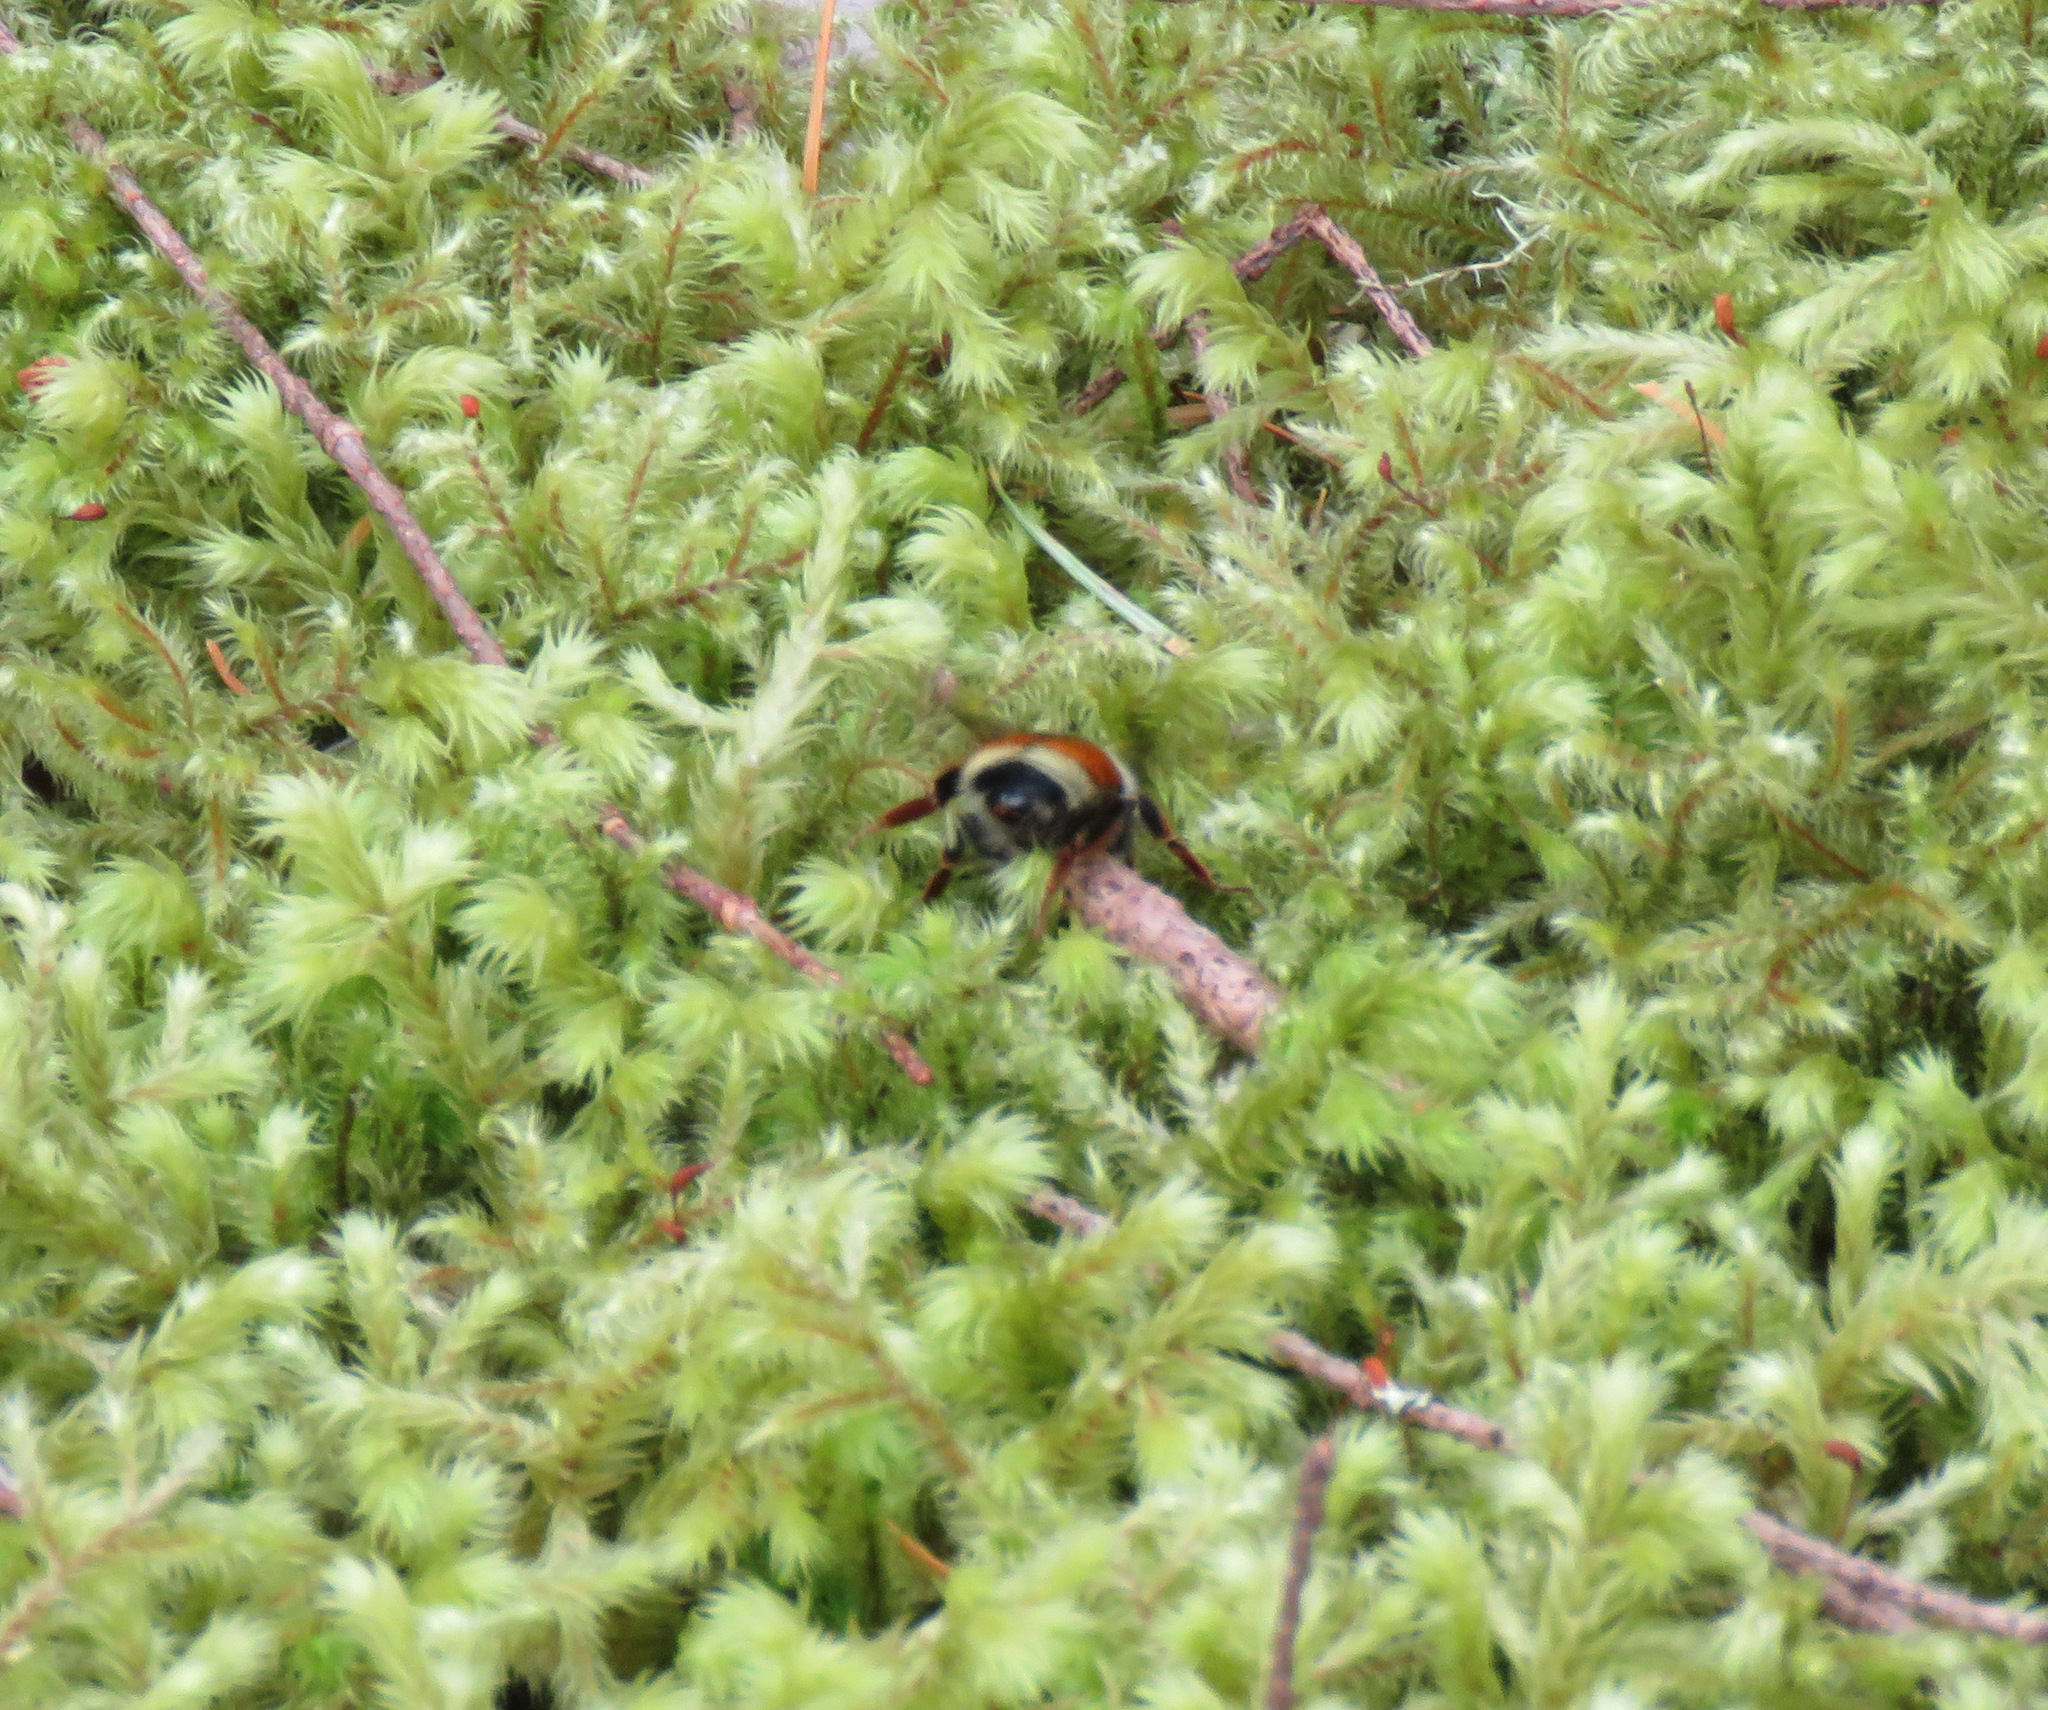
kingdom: Animalia
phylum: Arthropoda
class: Insecta
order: Hymenoptera
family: Apidae
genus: Bombus
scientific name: Bombus vancouverensis
